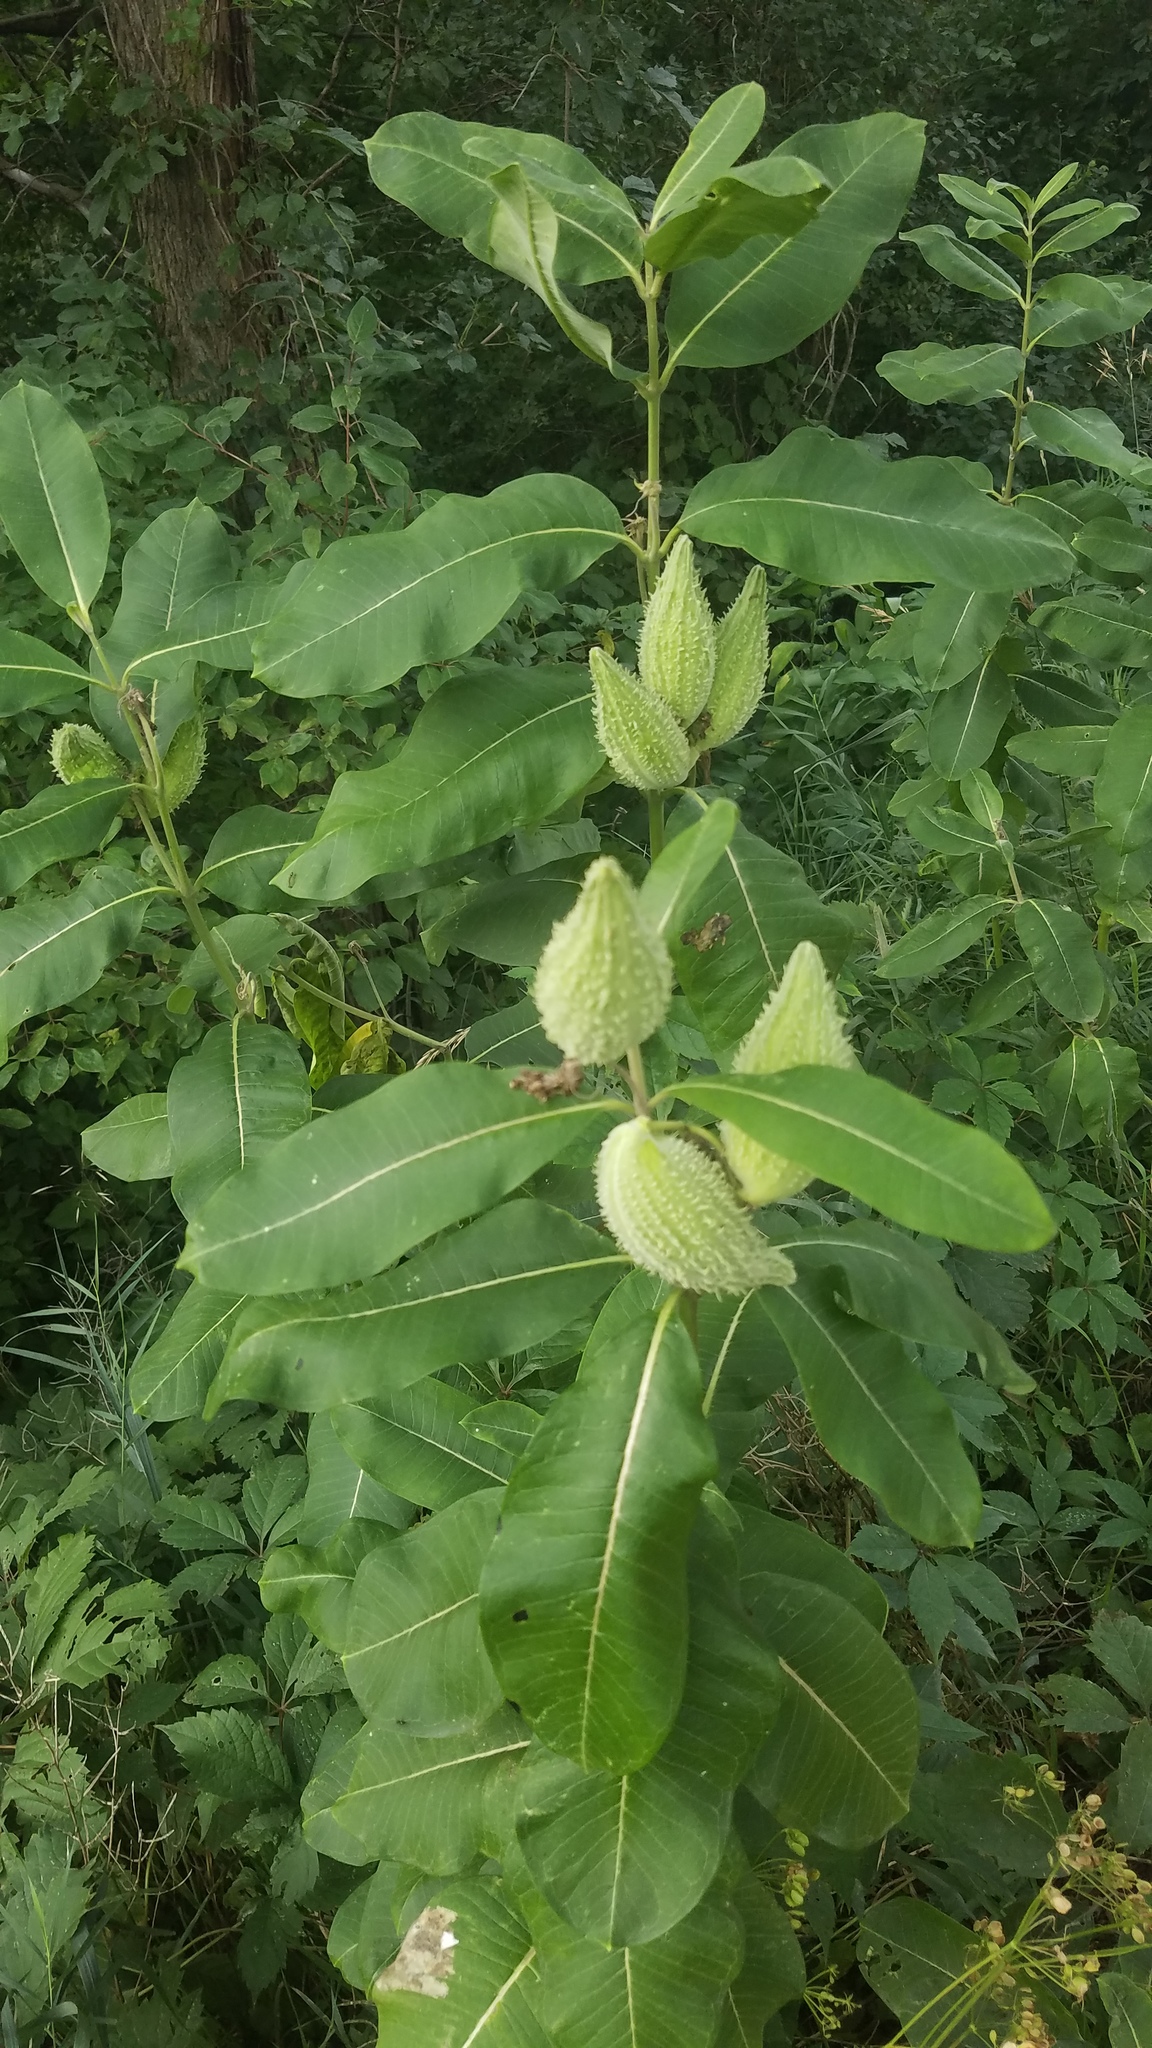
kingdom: Plantae
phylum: Tracheophyta
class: Magnoliopsida
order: Gentianales
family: Apocynaceae
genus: Asclepias
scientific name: Asclepias syriaca
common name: Common milkweed
